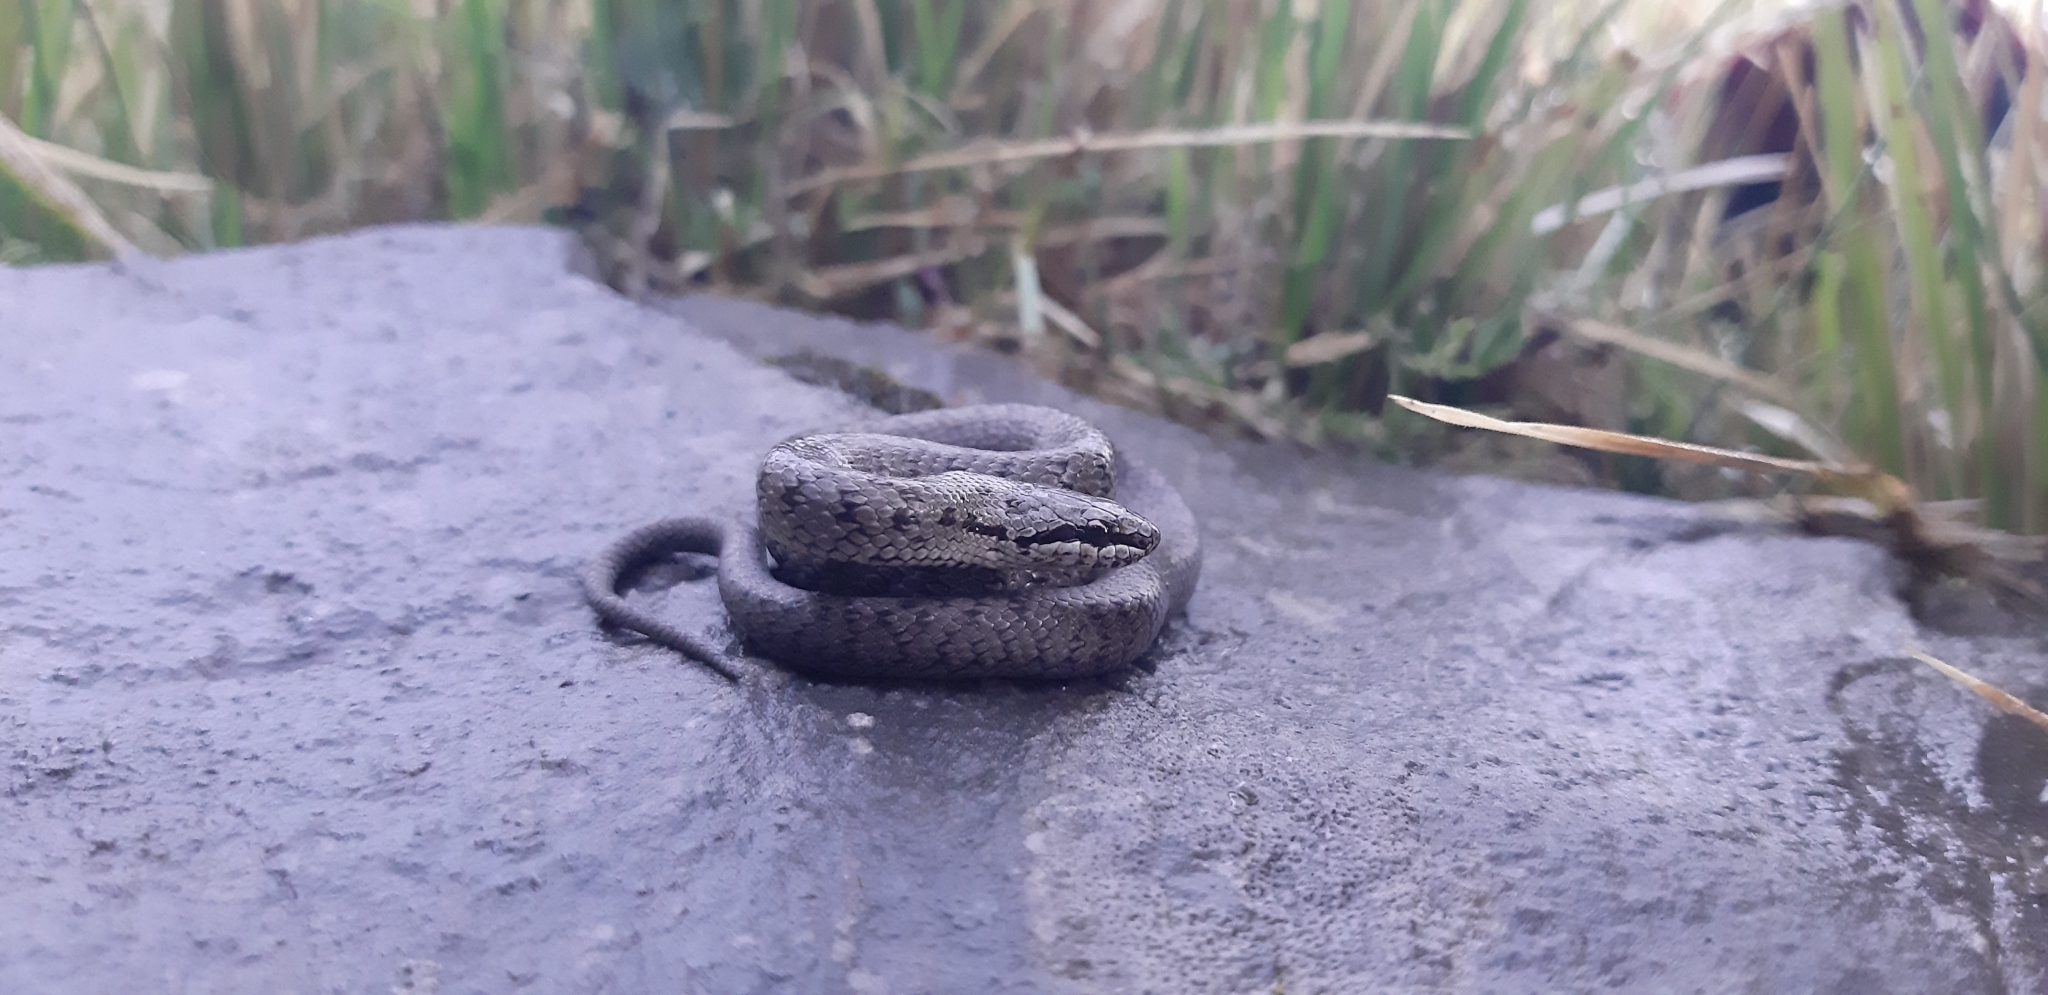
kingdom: Animalia
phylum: Chordata
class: Squamata
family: Colubridae
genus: Coronella
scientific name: Coronella austriaca
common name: Smooth snake
